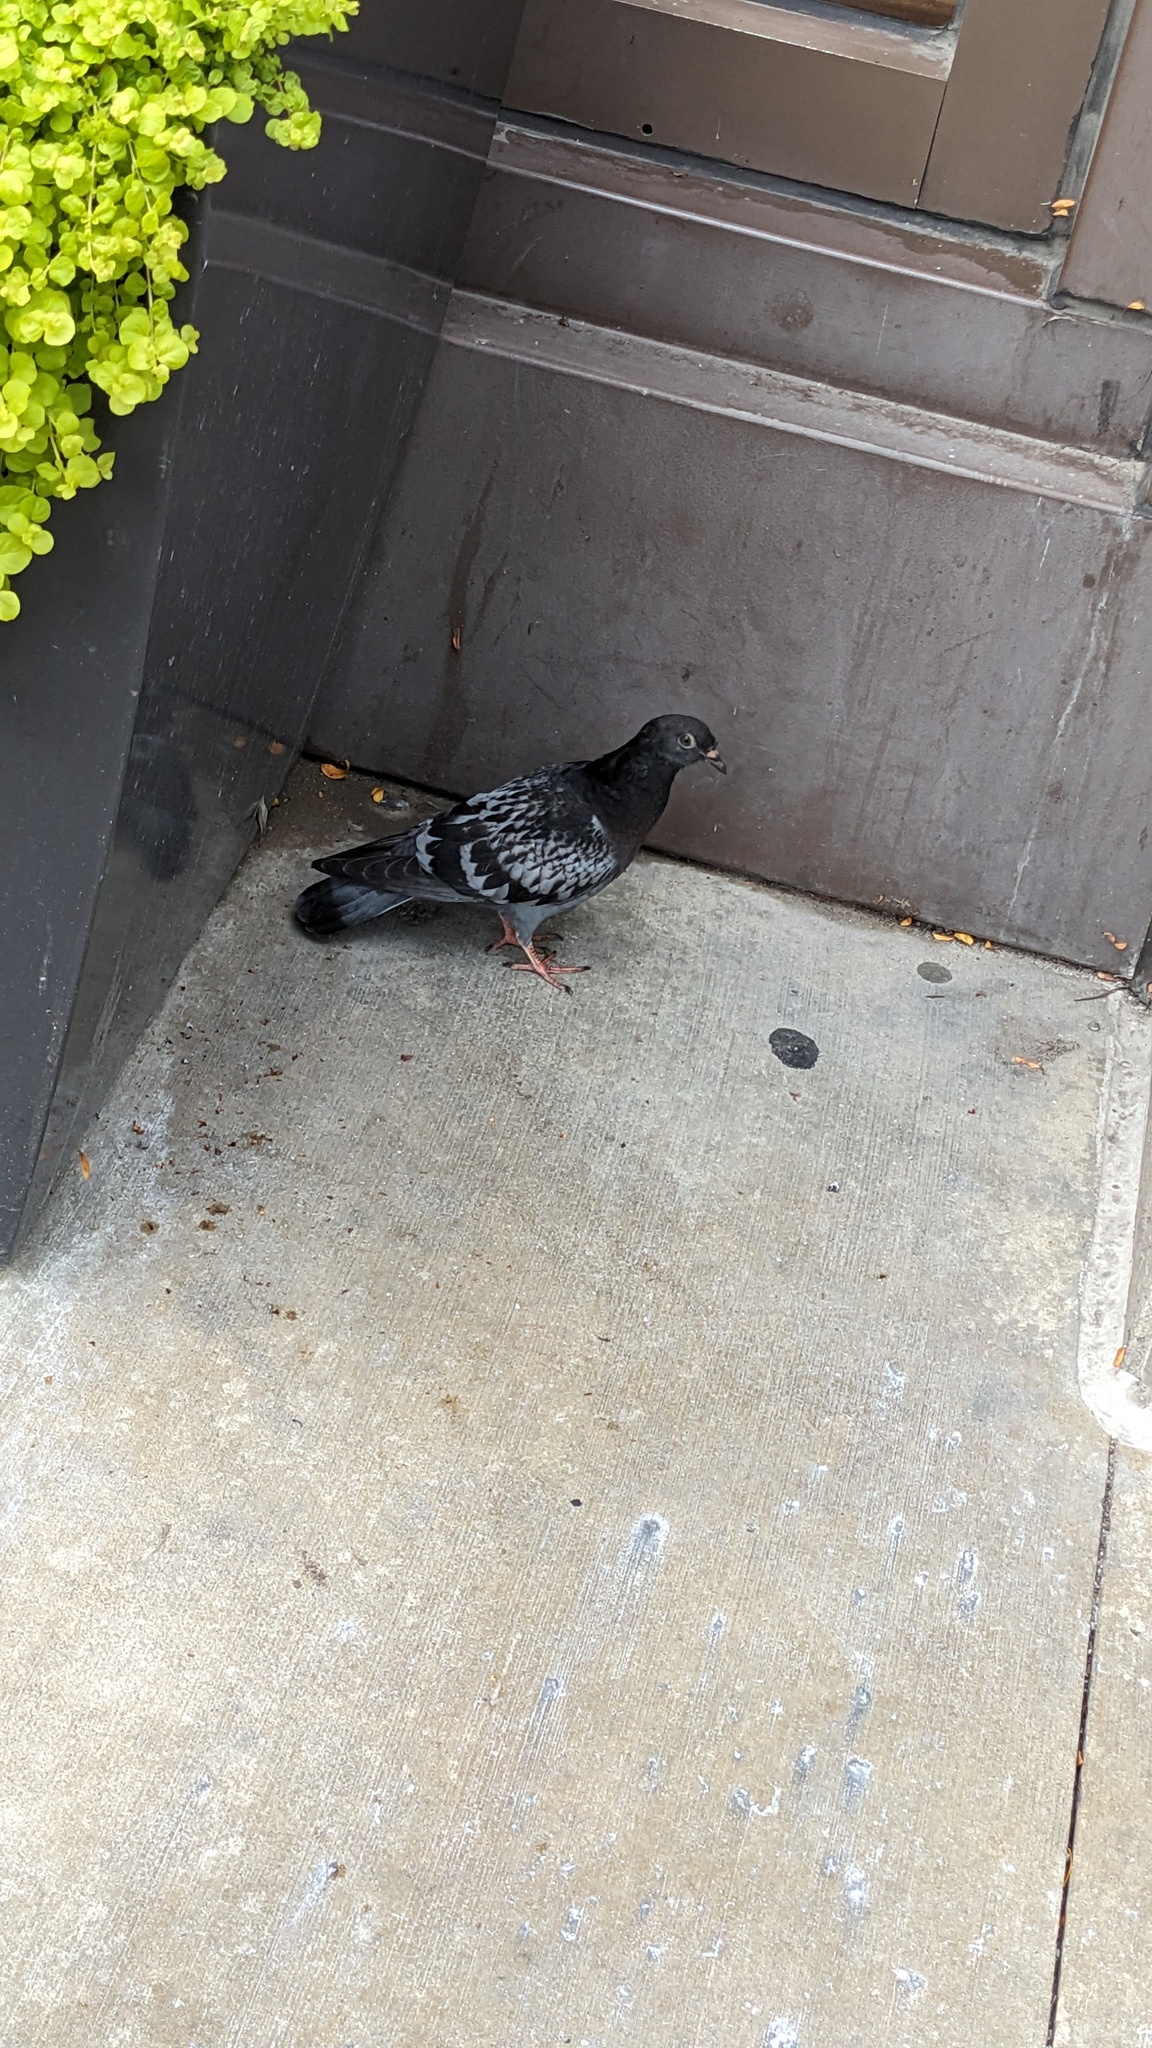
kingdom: Animalia
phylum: Chordata
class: Aves
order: Columbiformes
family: Columbidae
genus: Columba
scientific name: Columba livia
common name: Rock pigeon
